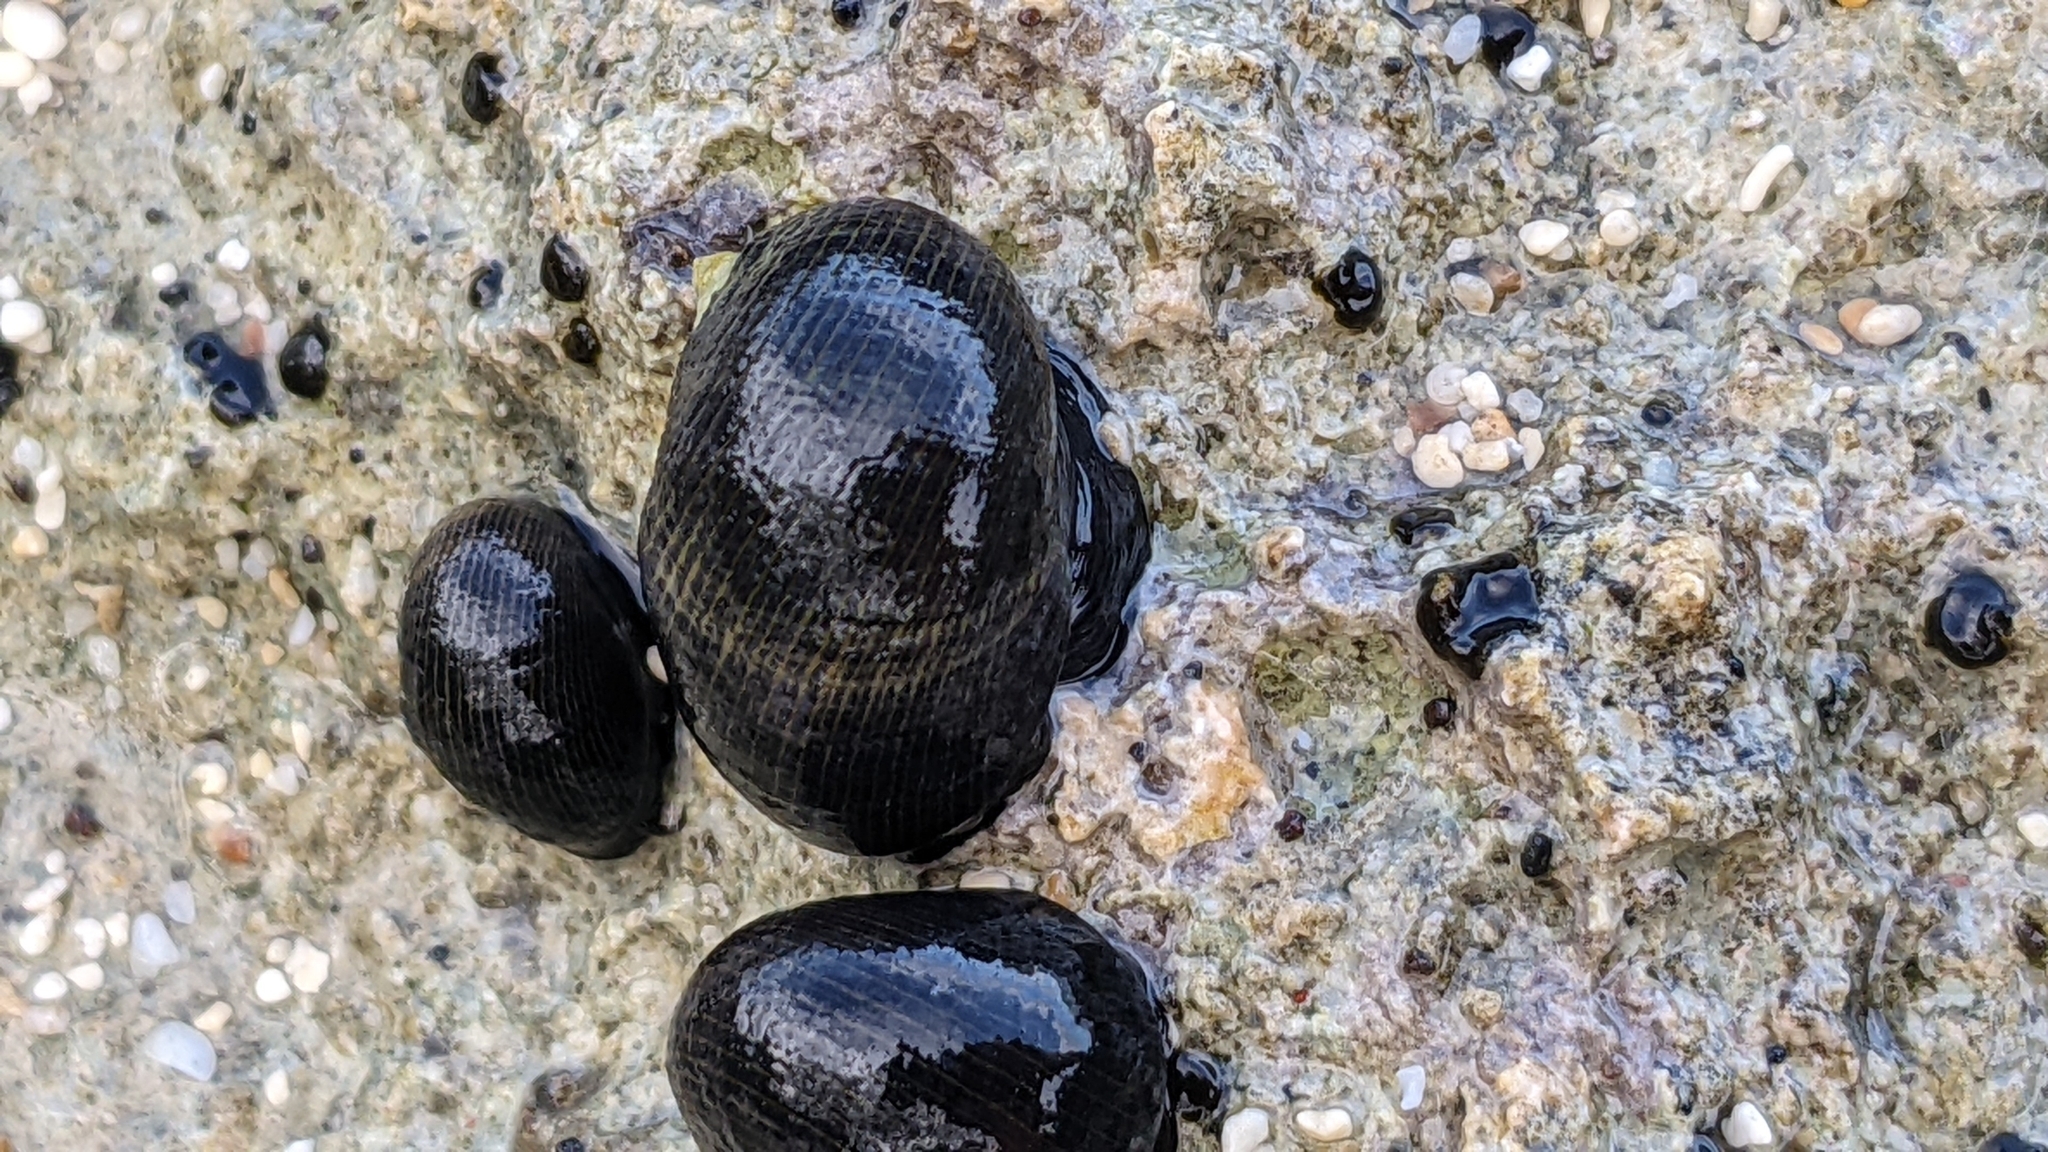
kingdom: Animalia
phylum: Mollusca
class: Gastropoda
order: Cycloneritida
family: Neritidae
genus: Nerita
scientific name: Nerita picea
